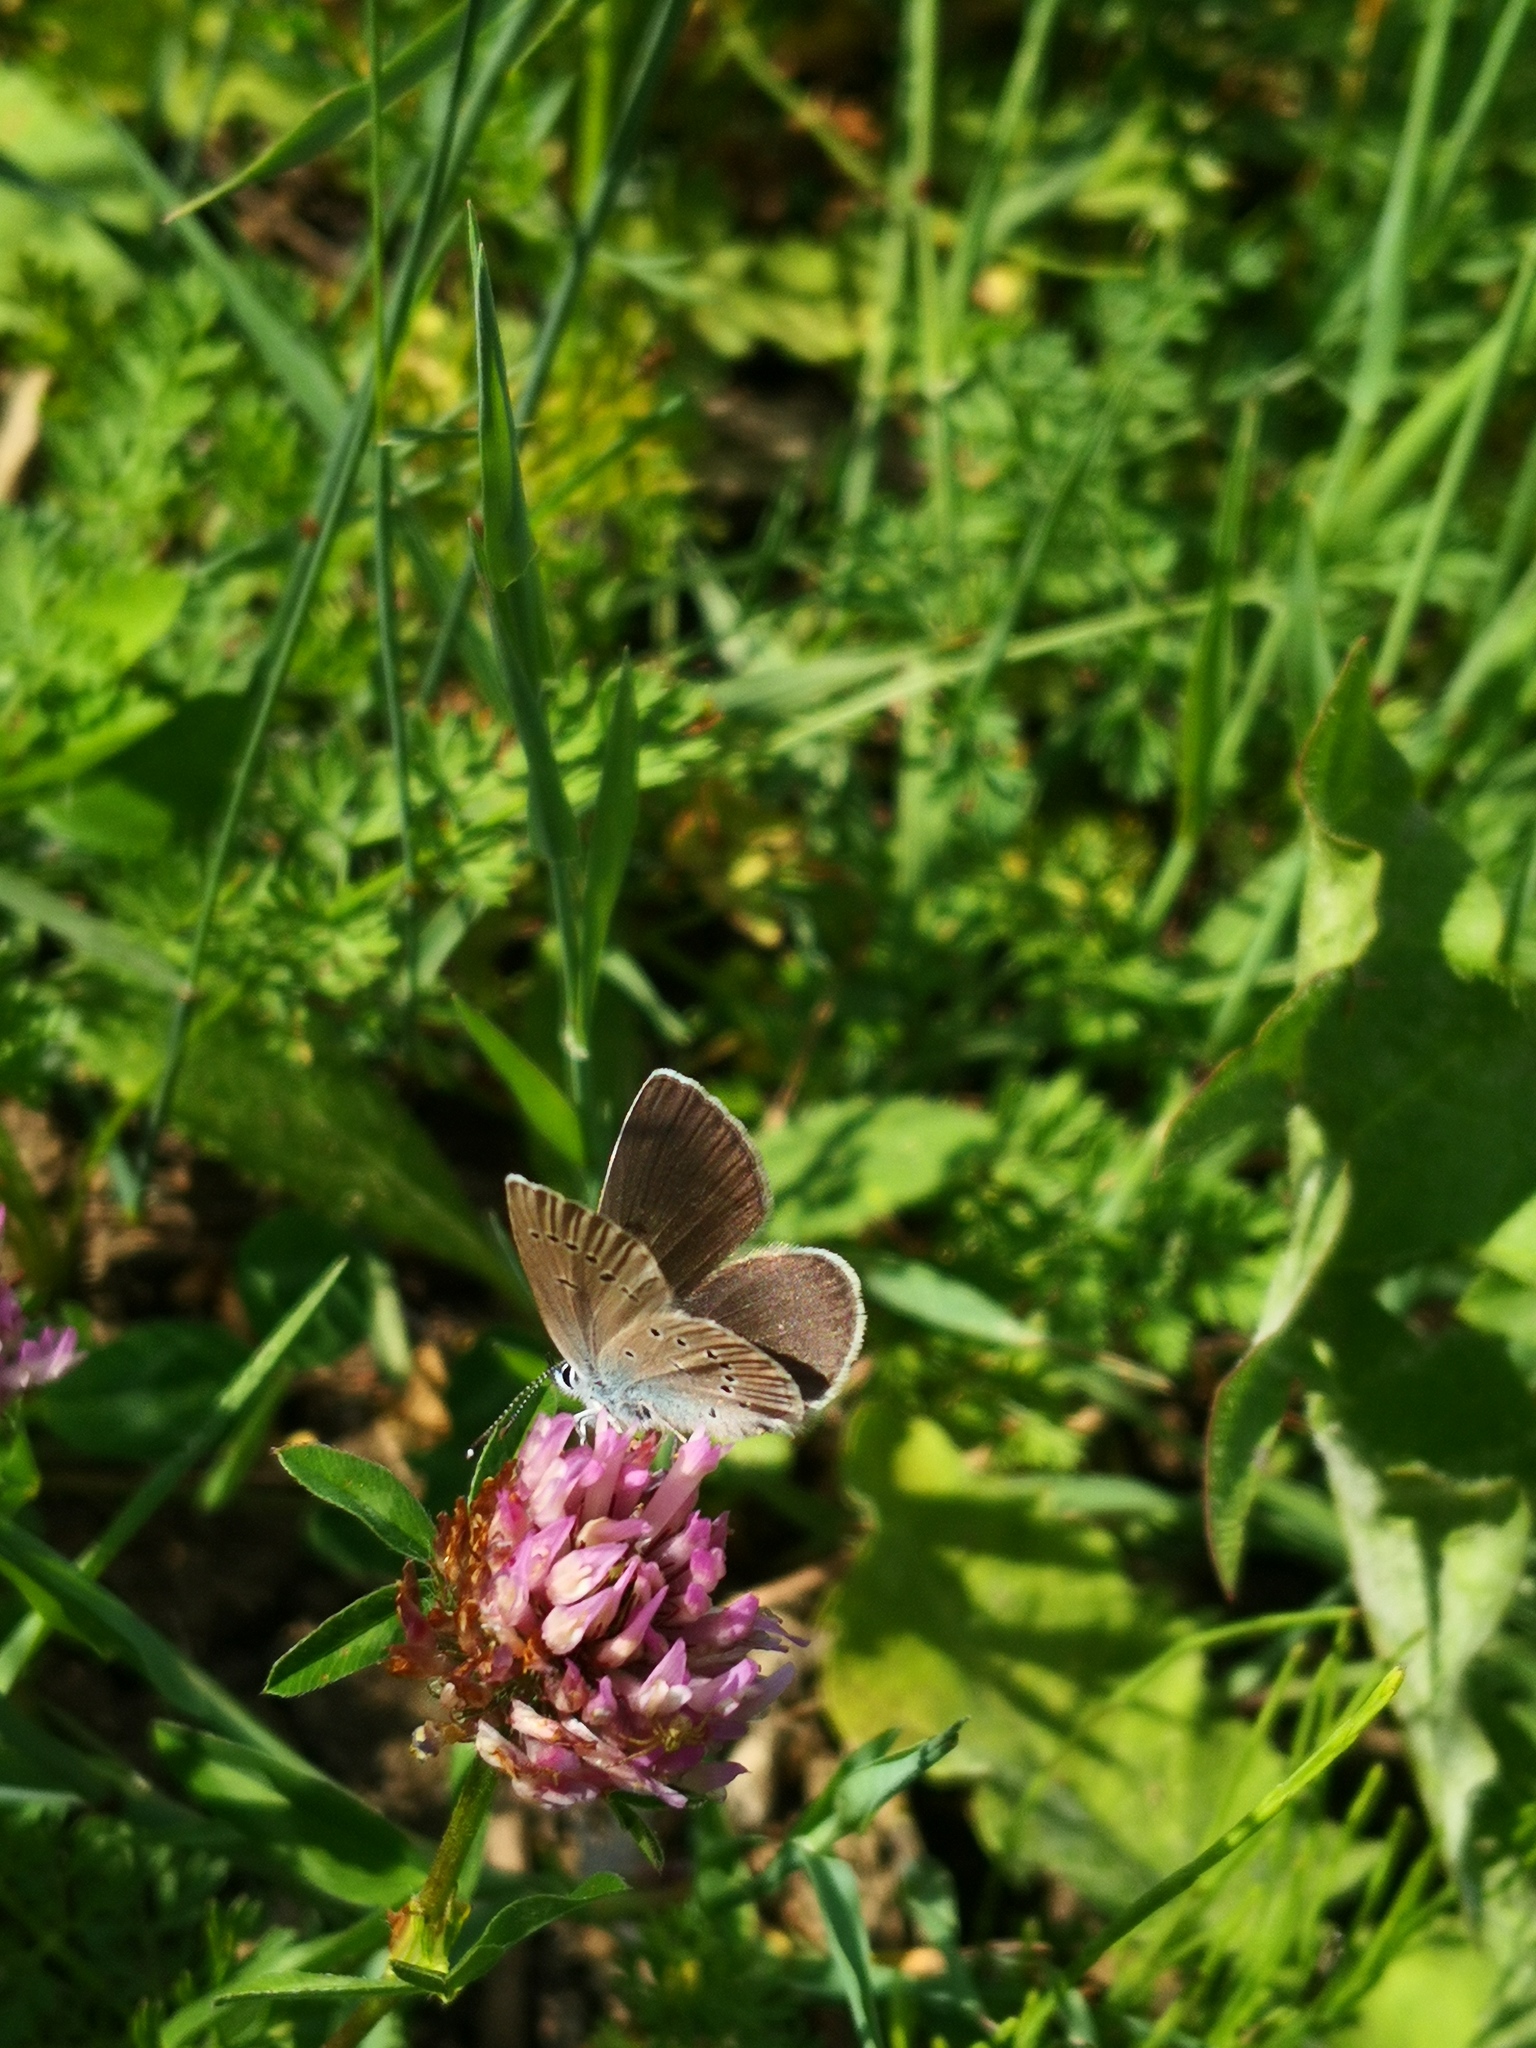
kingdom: Animalia
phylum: Arthropoda
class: Insecta
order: Lepidoptera
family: Lycaenidae
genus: Cyaniris
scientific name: Cyaniris semiargus
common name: Mazarine blue
